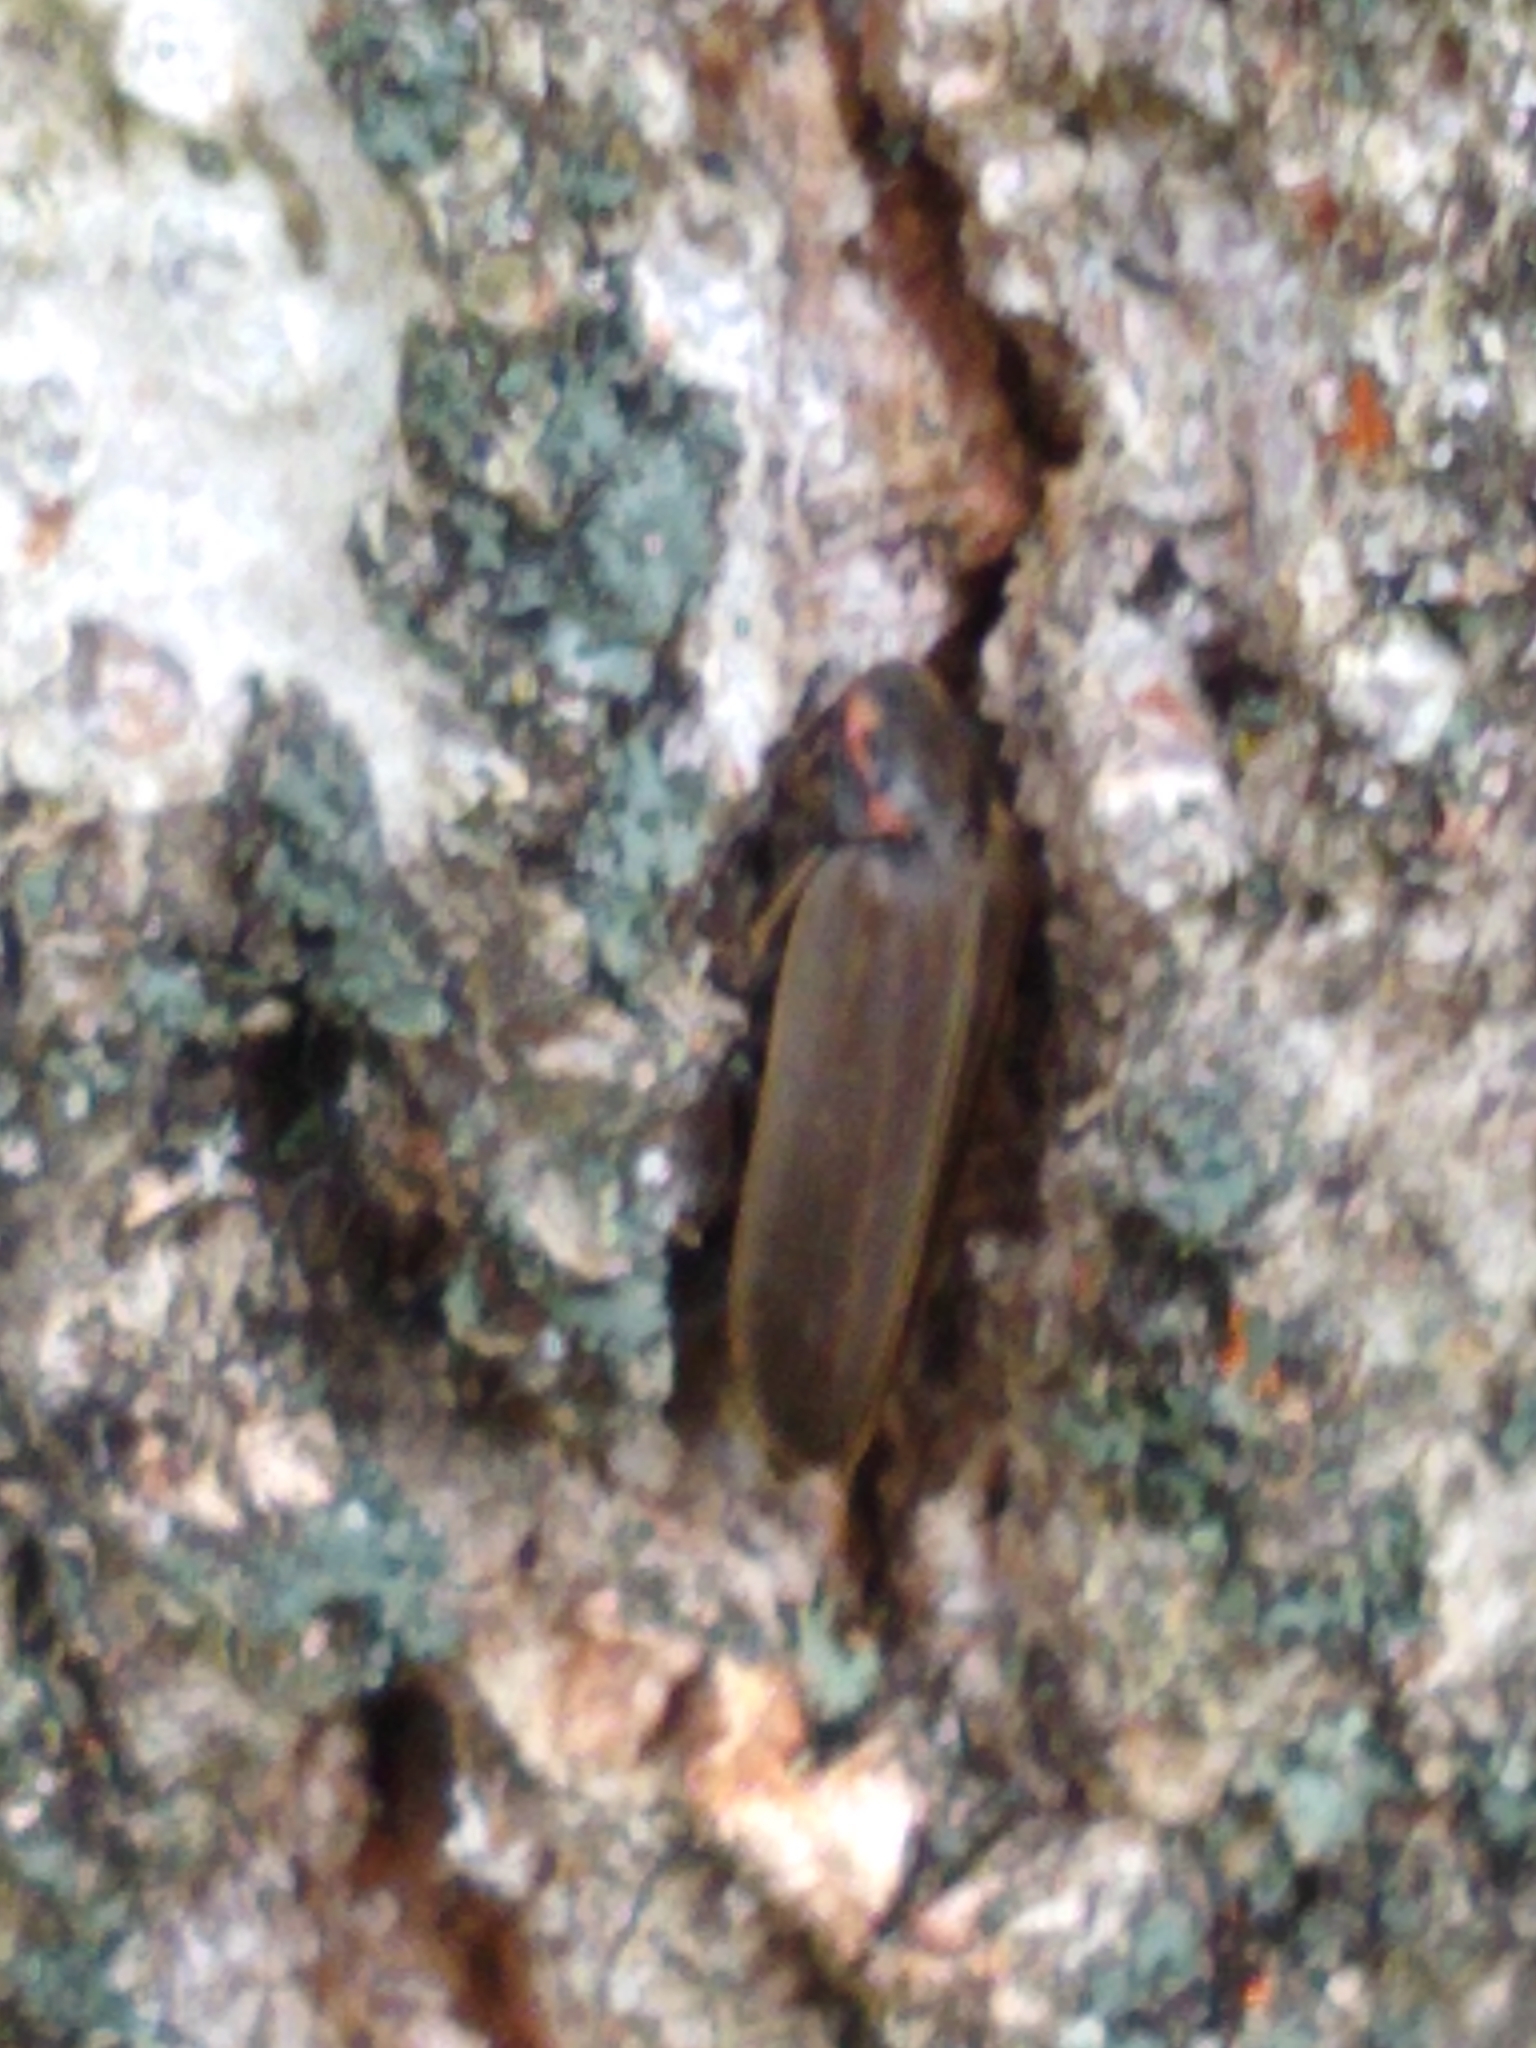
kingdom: Animalia
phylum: Arthropoda
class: Insecta
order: Coleoptera
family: Lampyridae
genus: Photinus
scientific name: Photinus corrusca
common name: Winter firefly
